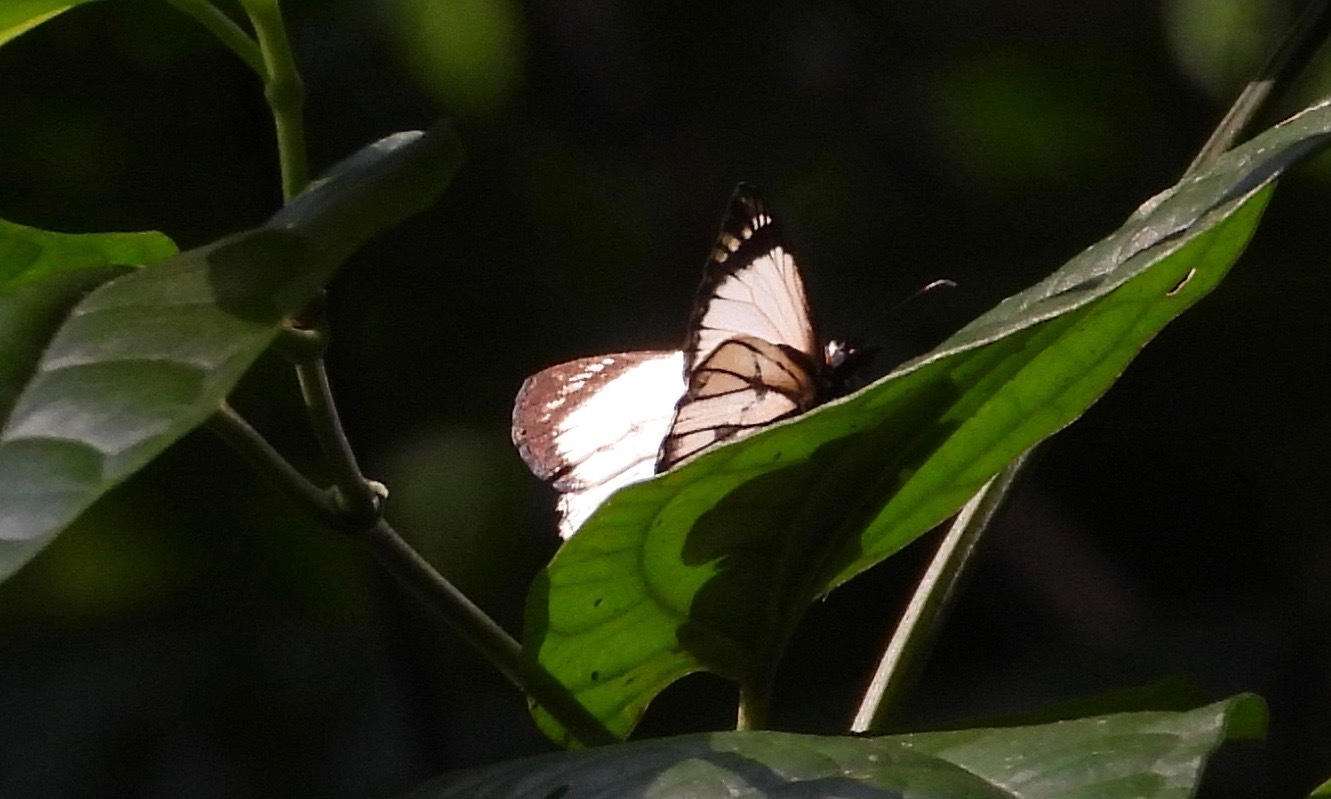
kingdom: Animalia
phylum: Arthropoda
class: Insecta
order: Lepidoptera
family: Hesperiidae
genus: Heliopetes
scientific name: Heliopetes alana
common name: Alana white-skipper
